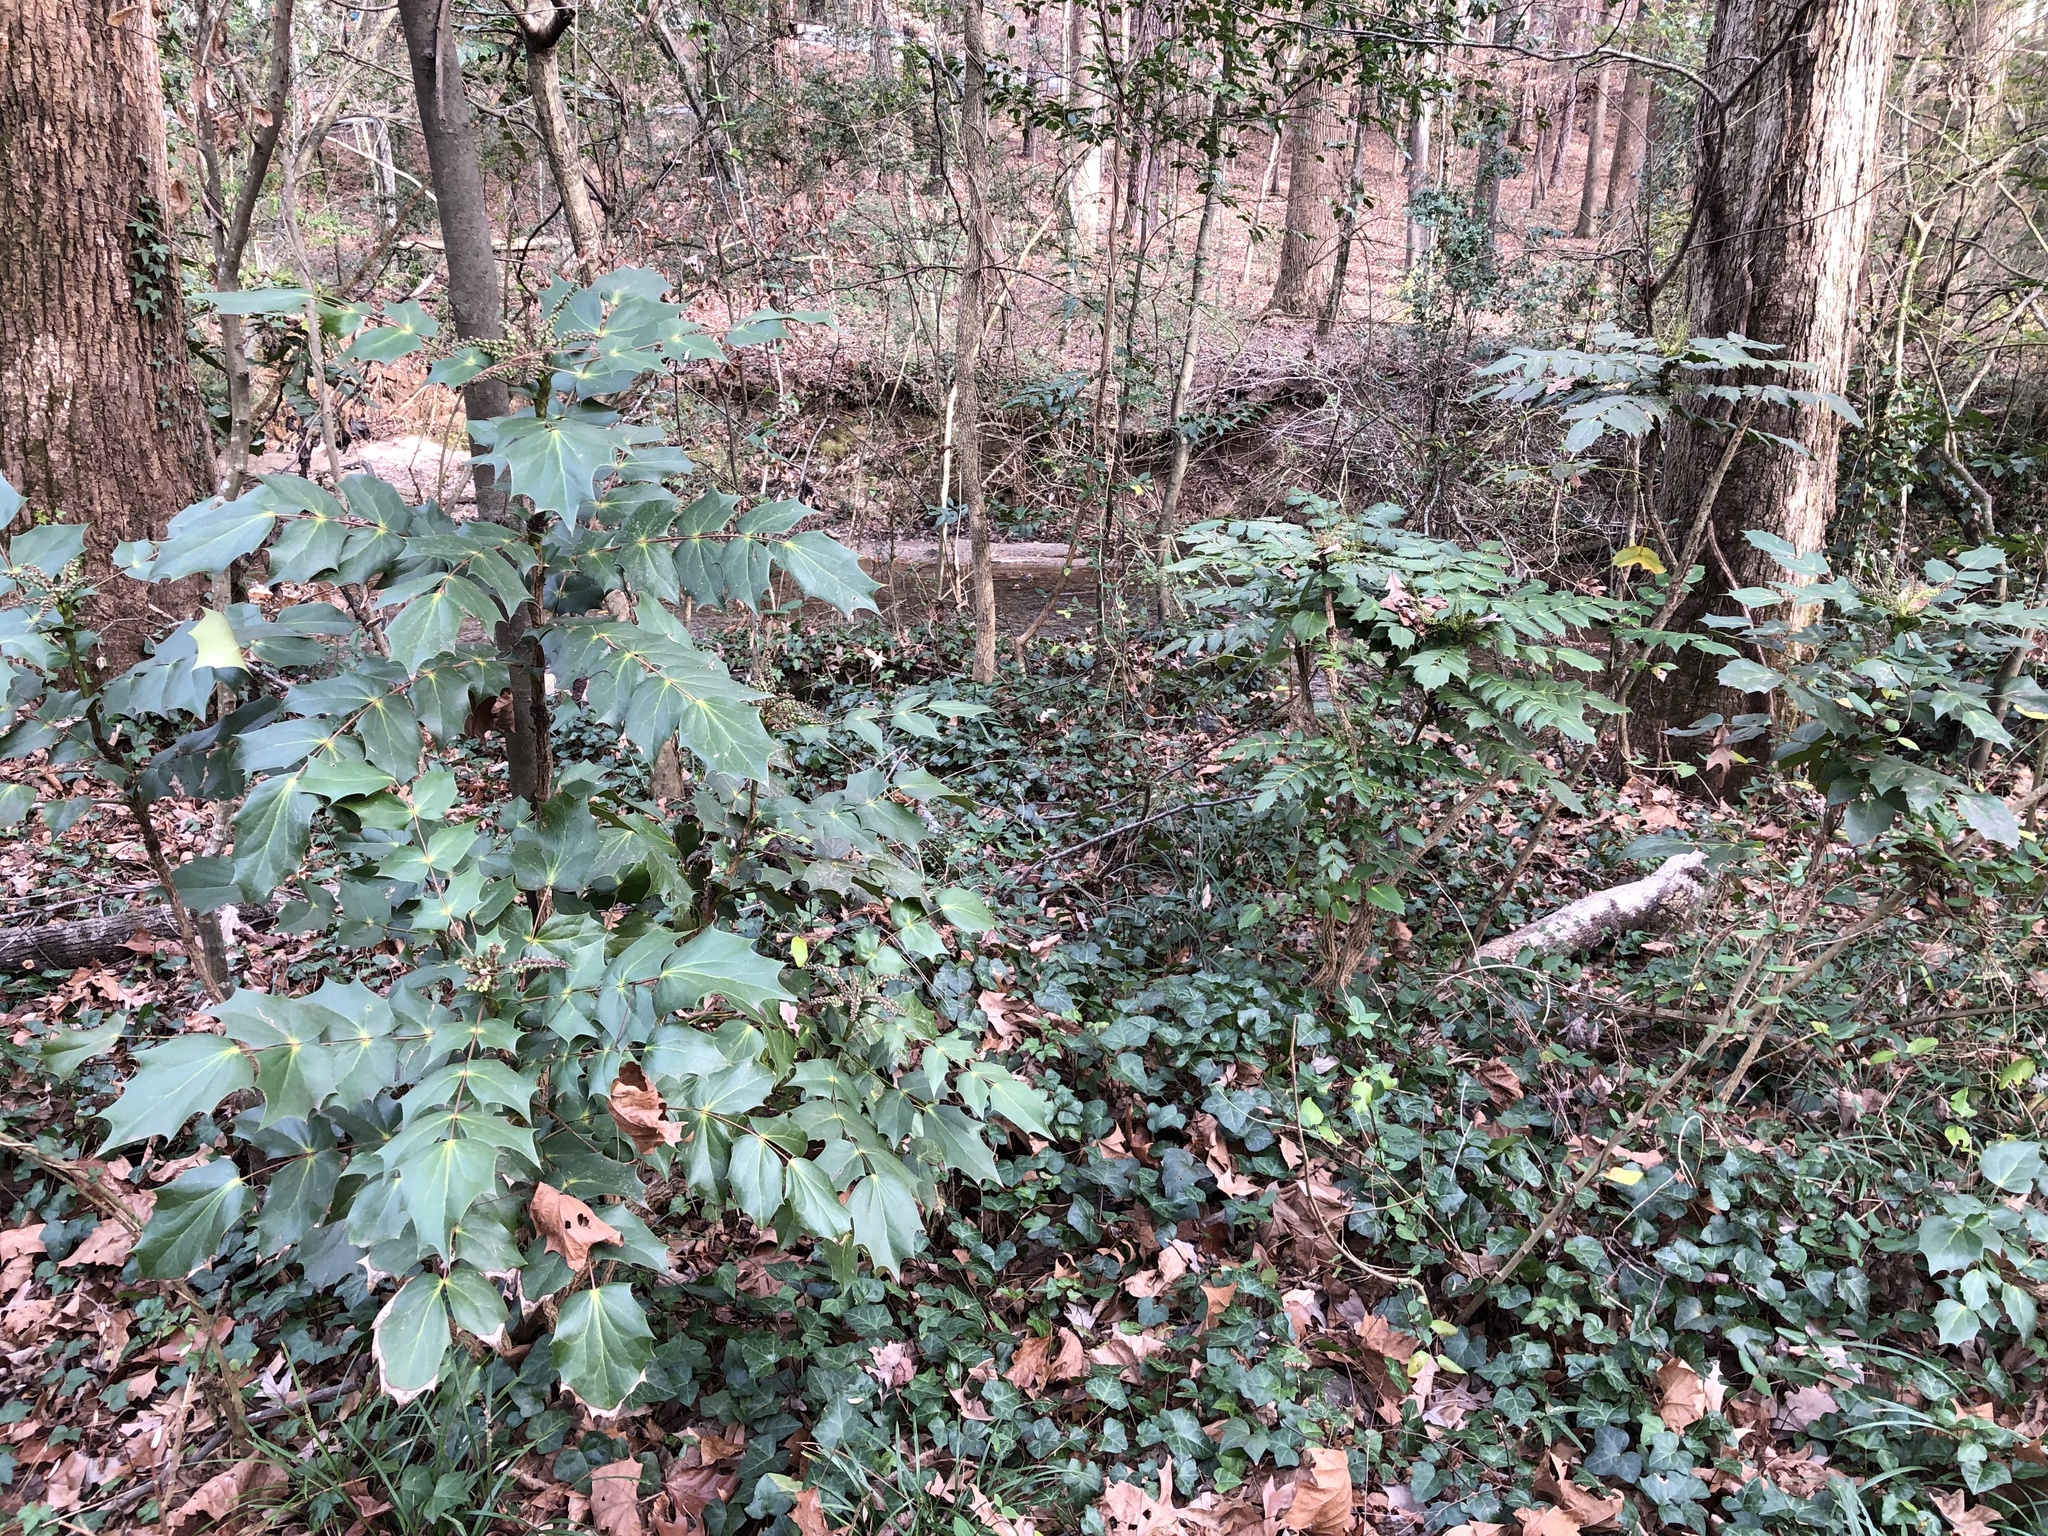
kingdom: Plantae
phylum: Tracheophyta
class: Magnoliopsida
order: Ranunculales
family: Berberidaceae
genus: Mahonia
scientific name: Mahonia bealei
